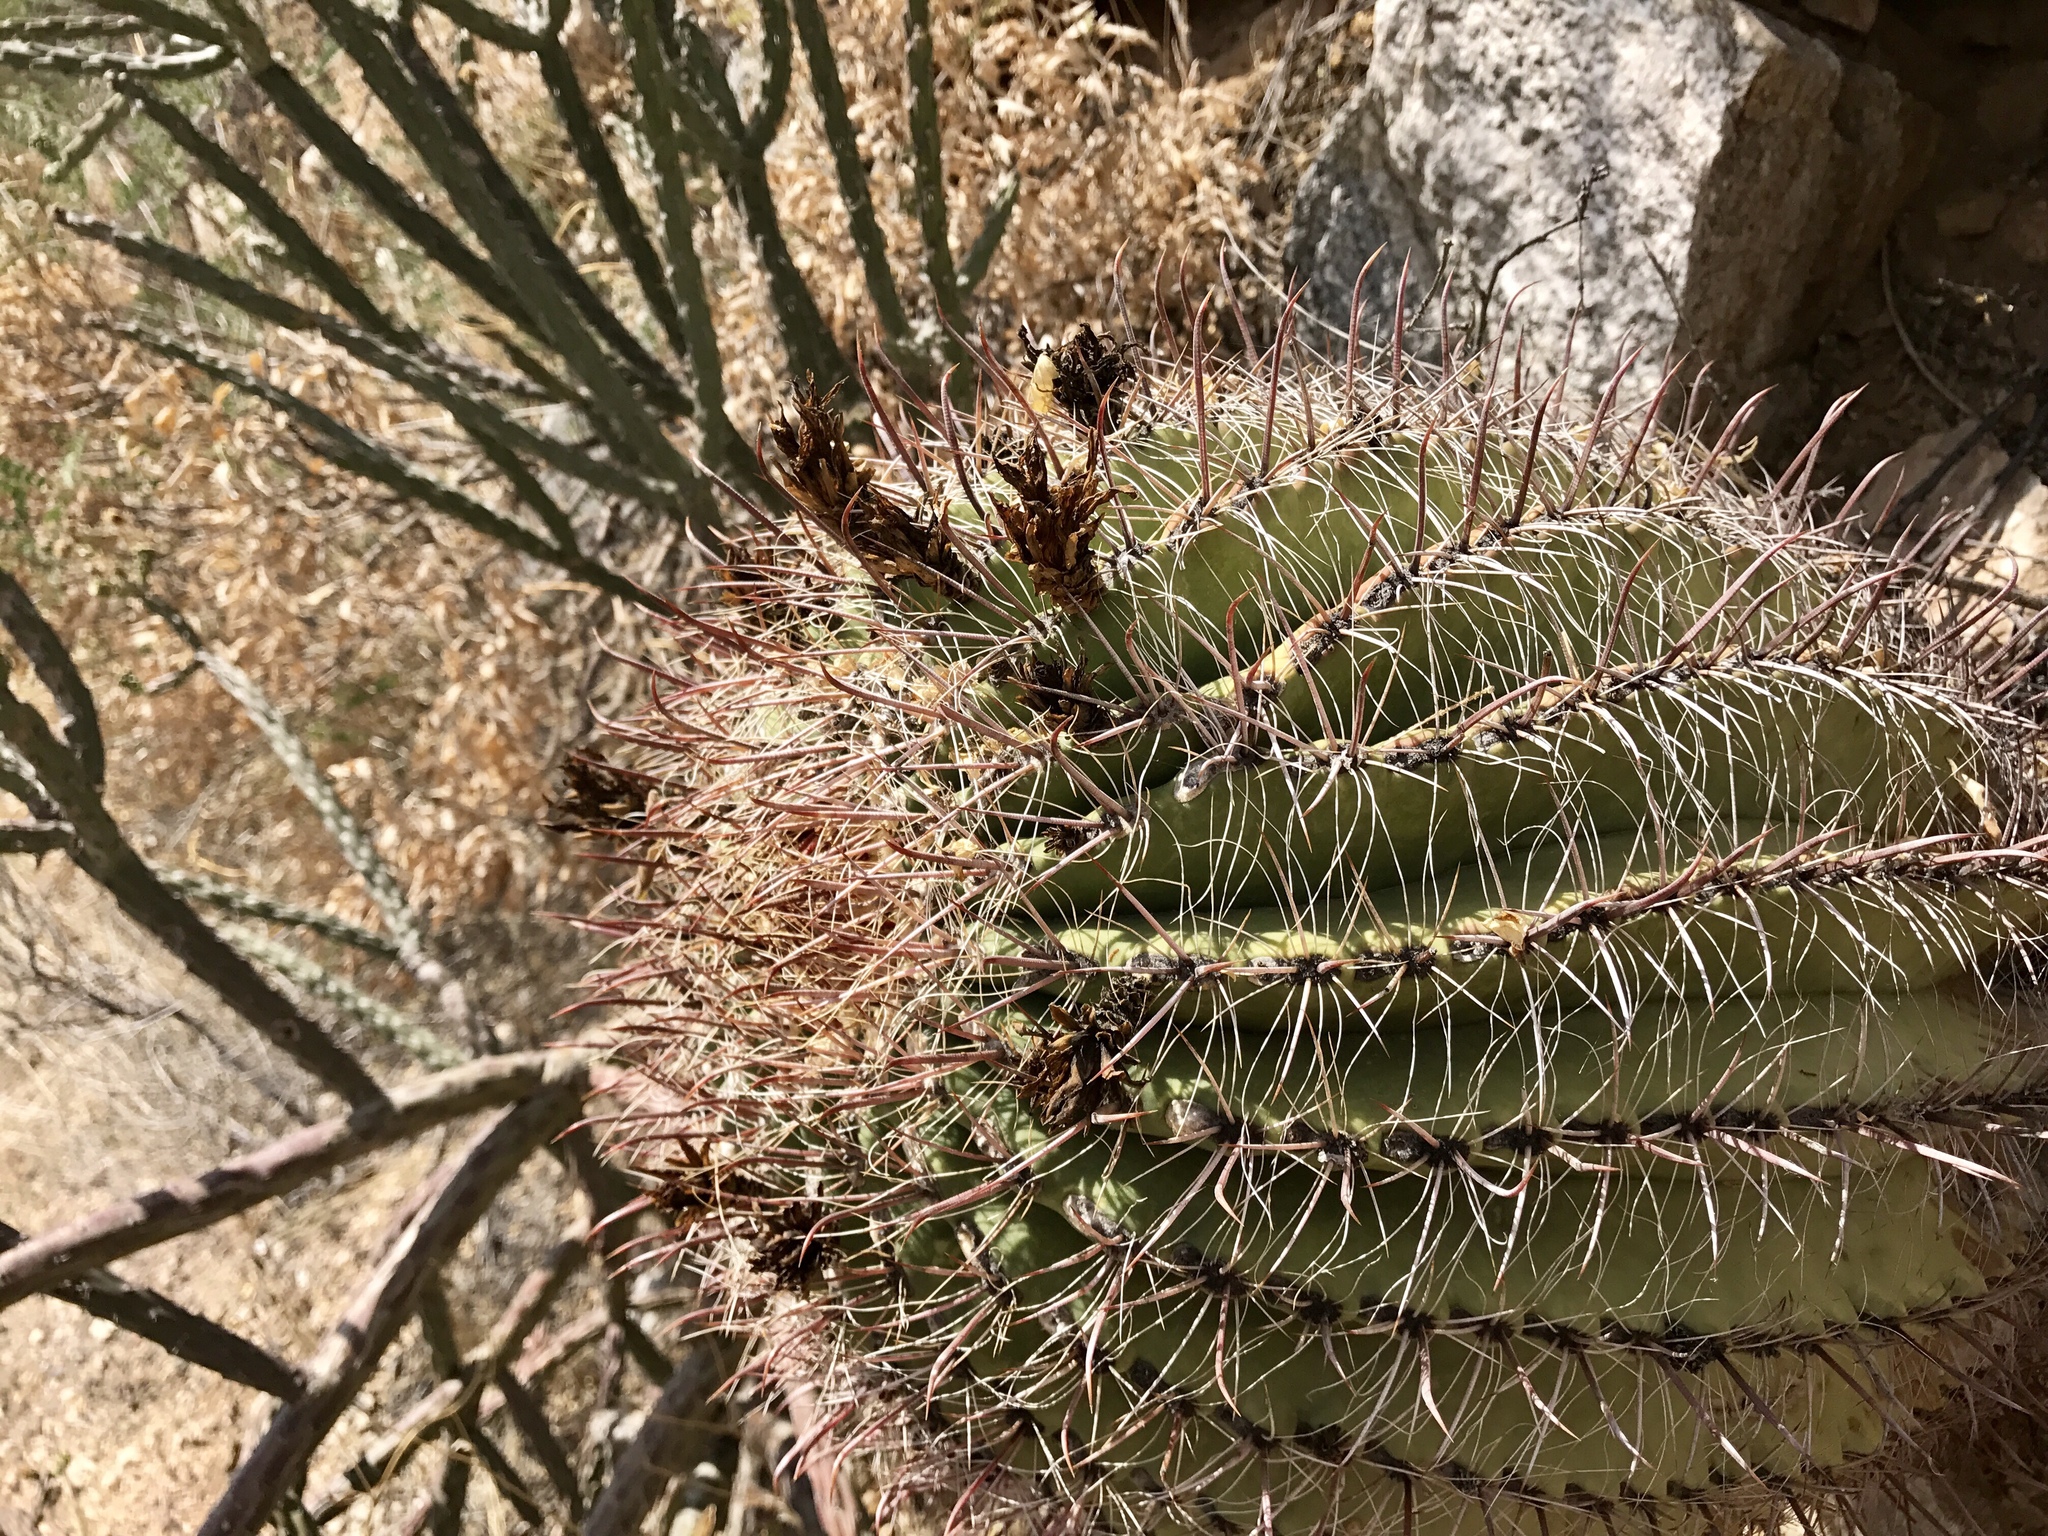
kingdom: Plantae
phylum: Tracheophyta
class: Magnoliopsida
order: Caryophyllales
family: Cactaceae
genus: Ferocactus
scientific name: Ferocactus wislizeni
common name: Candy barrel cactus
